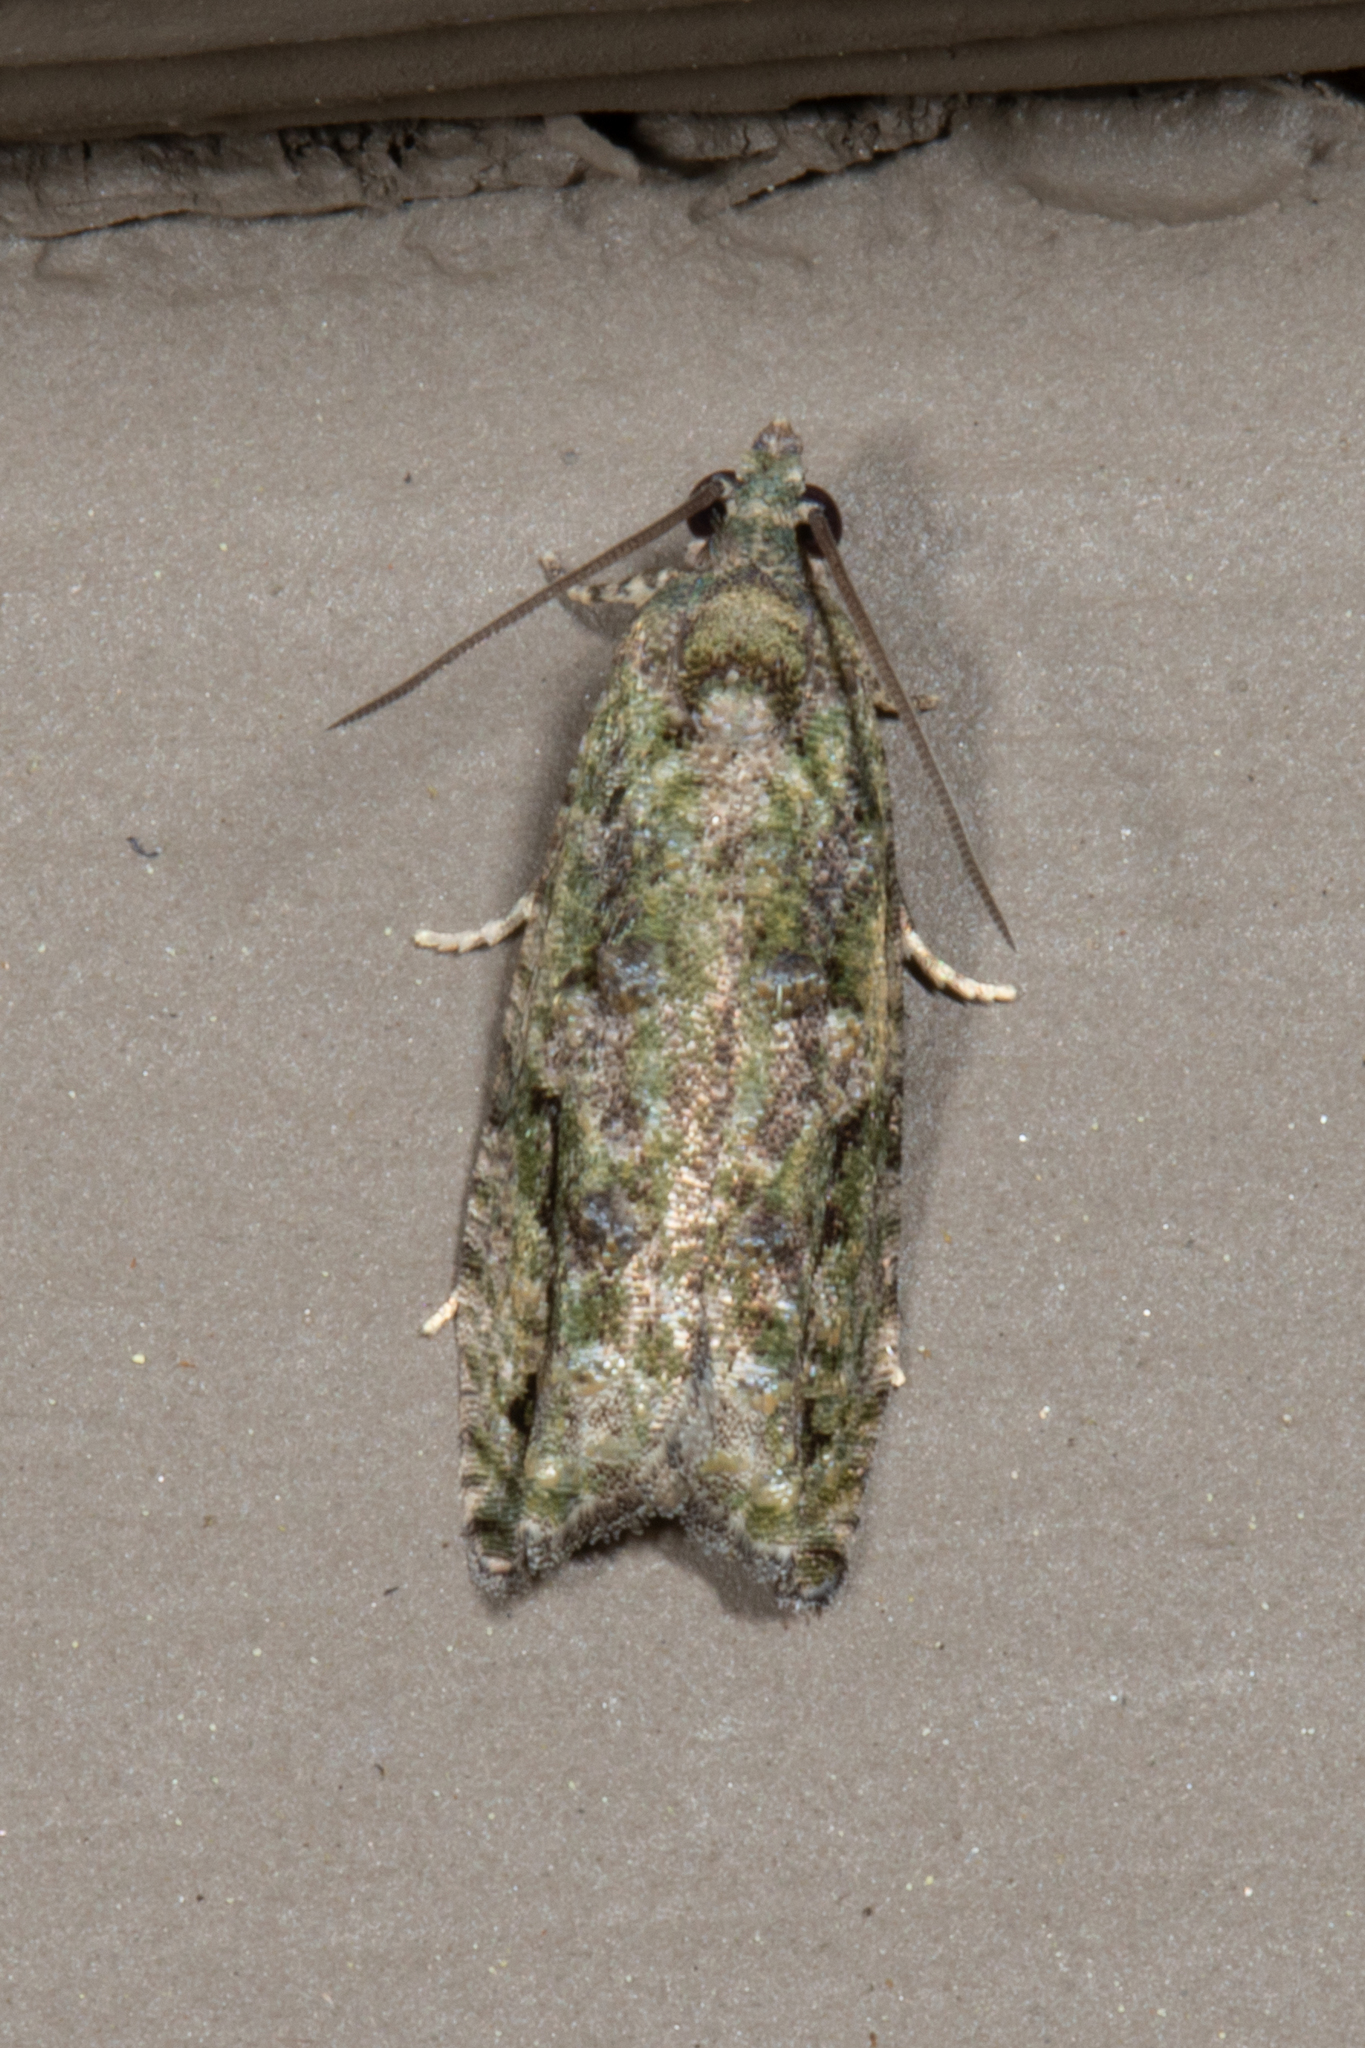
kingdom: Animalia
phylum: Arthropoda
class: Insecta
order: Lepidoptera
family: Tortricidae
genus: Proteoteras
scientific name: Proteoteras moffatiana
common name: Maple bud borer moth
